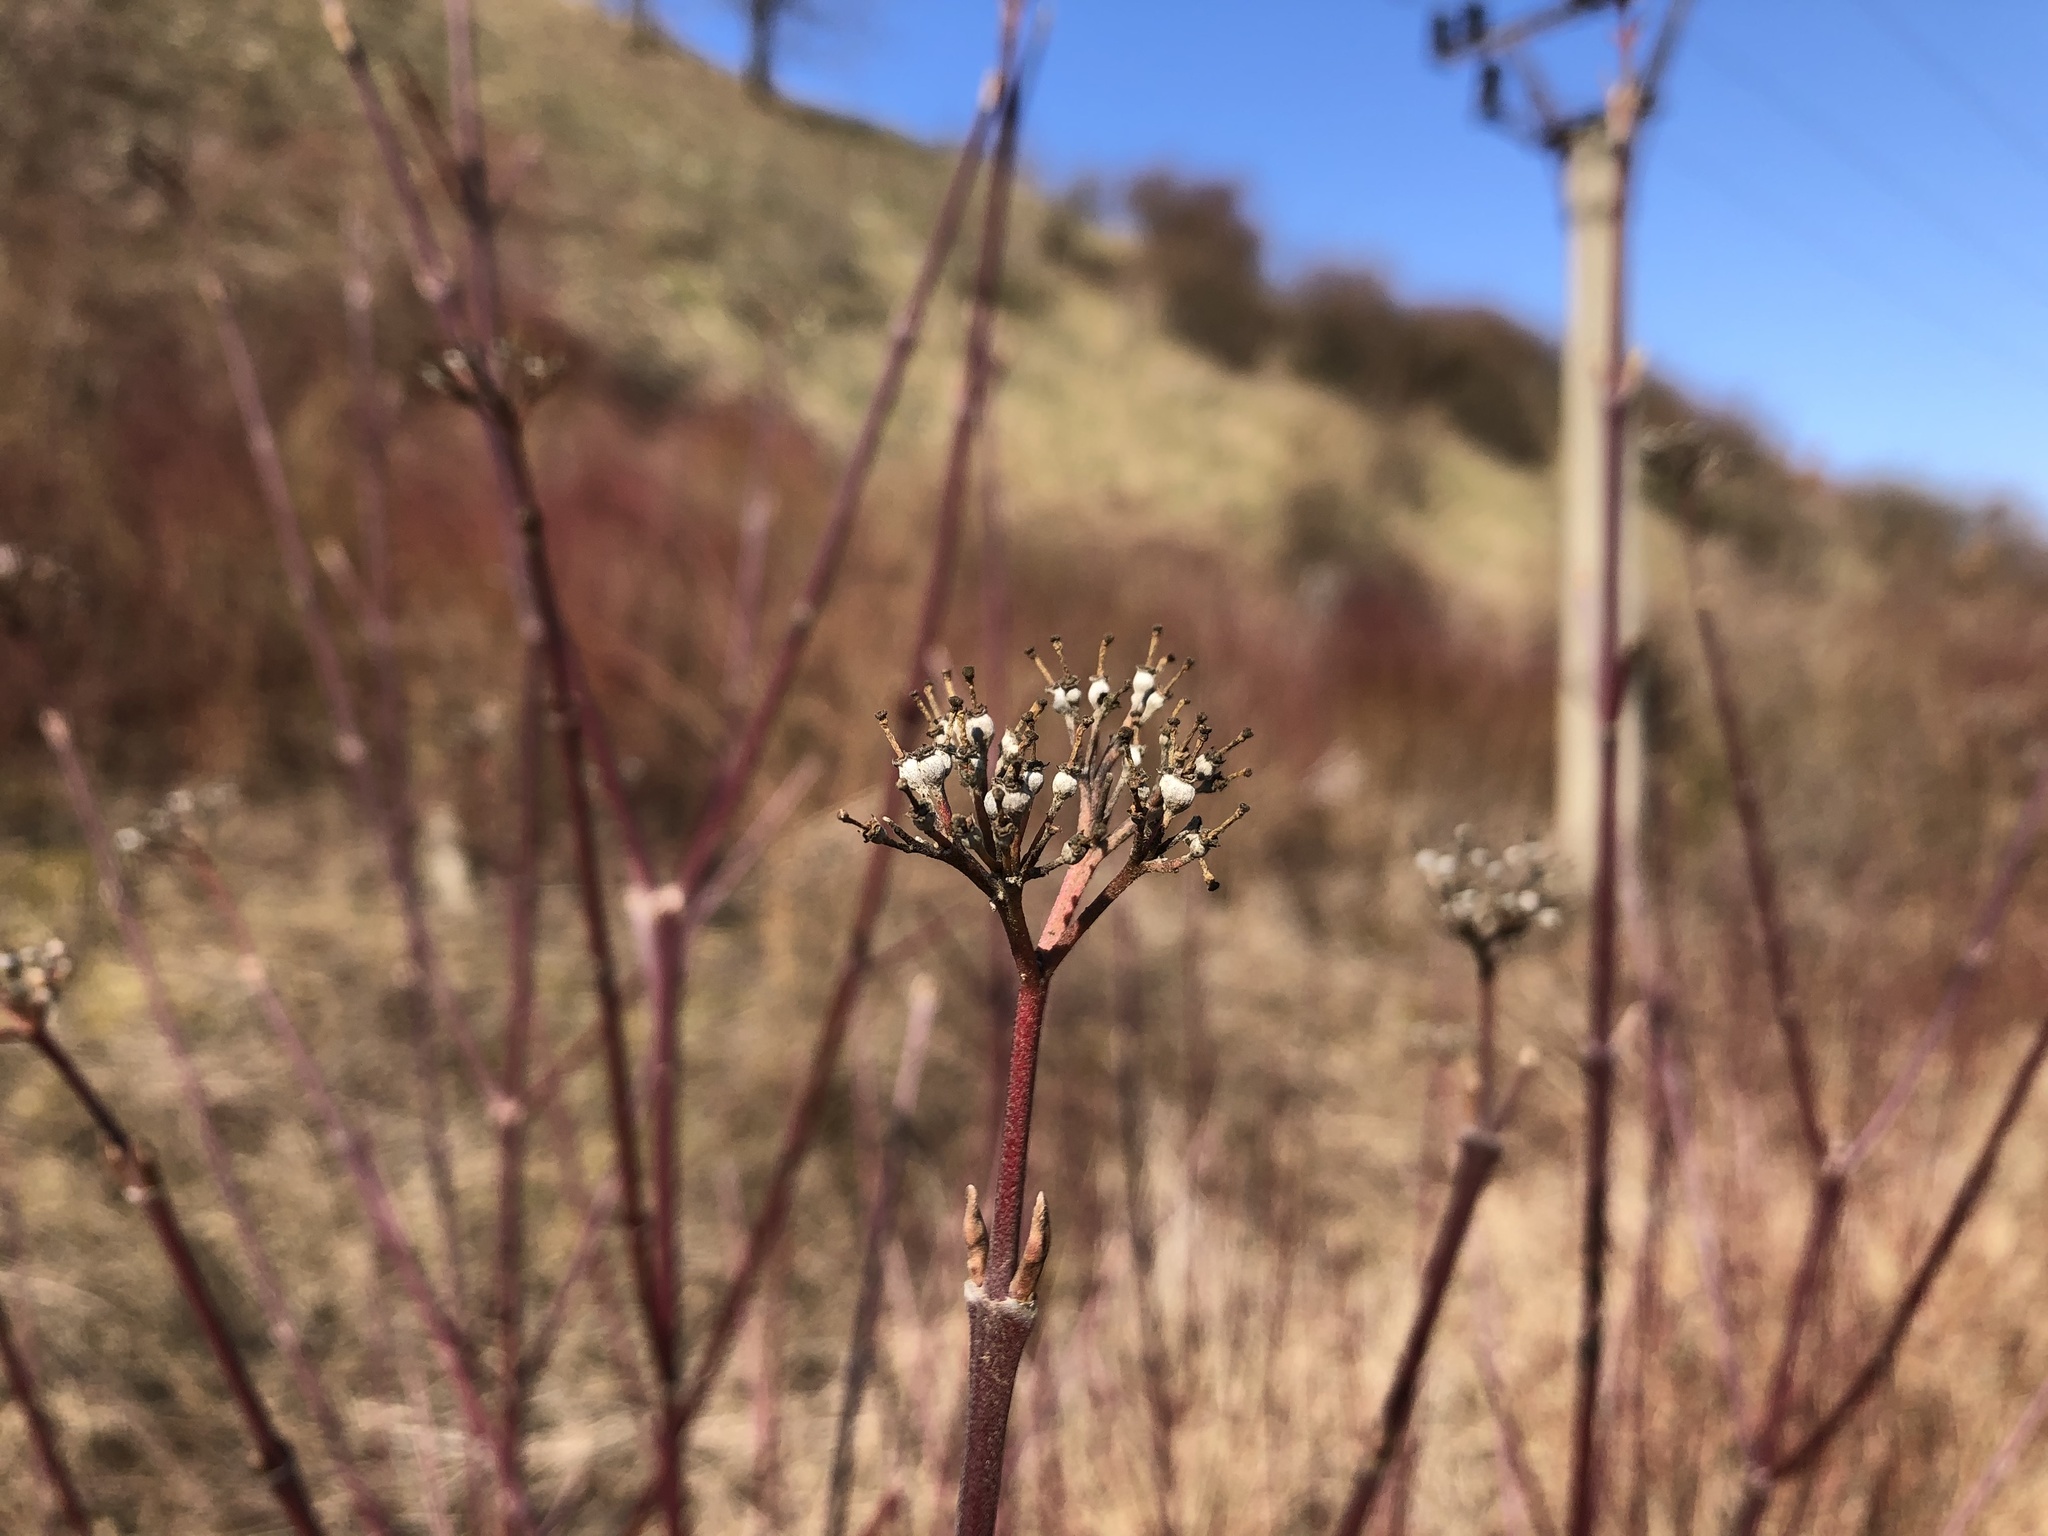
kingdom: Plantae
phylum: Tracheophyta
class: Magnoliopsida
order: Cornales
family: Cornaceae
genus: Cornus
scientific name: Cornus alba
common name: White dogwood
